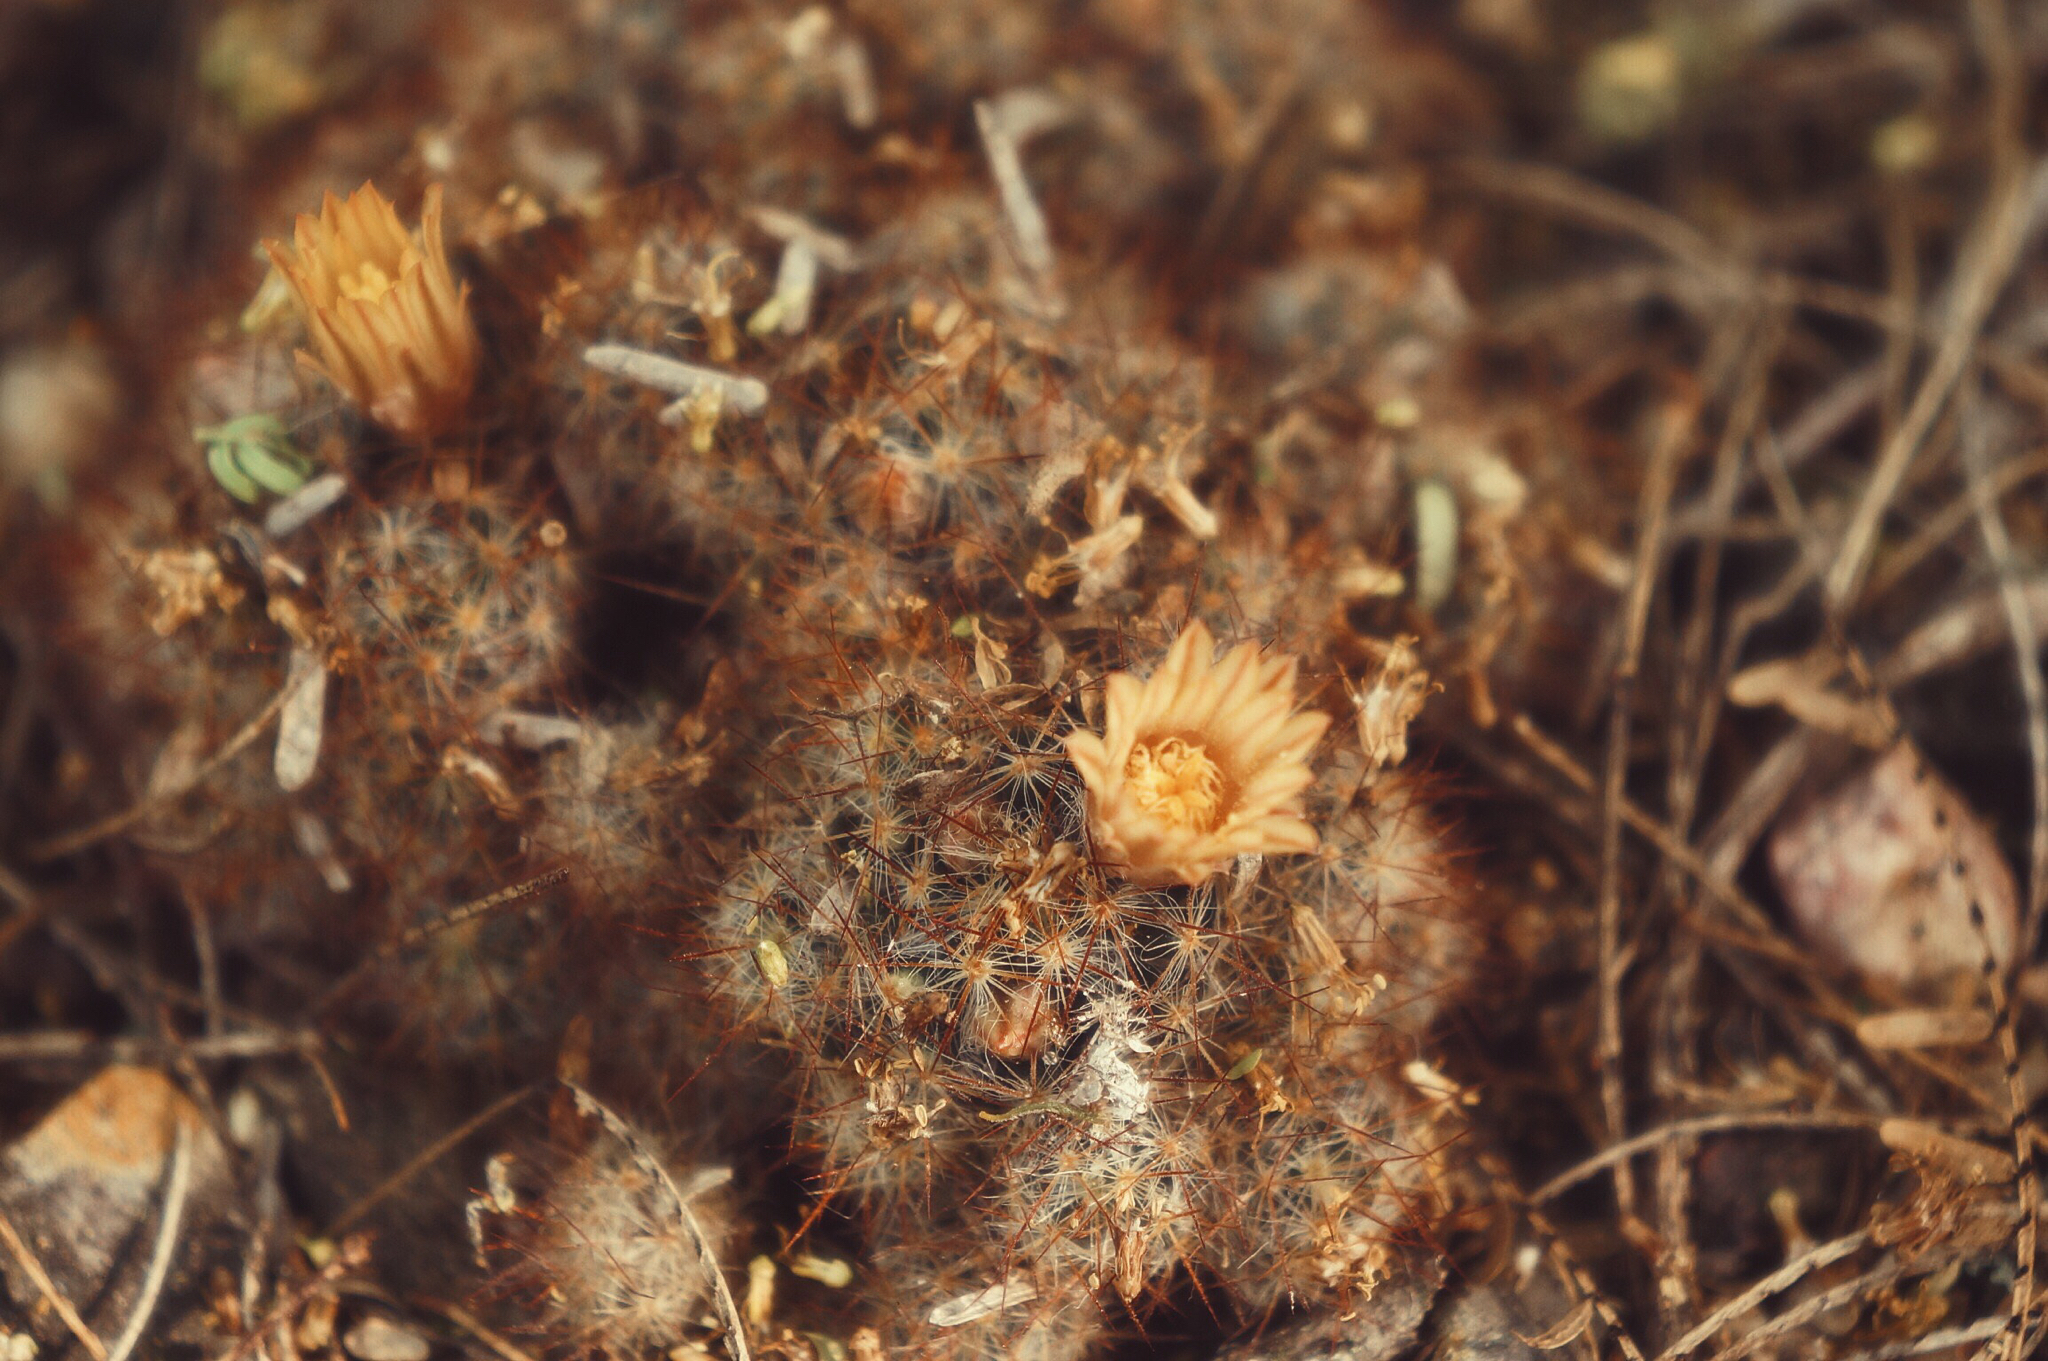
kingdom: Plantae
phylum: Tracheophyta
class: Magnoliopsida
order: Caryophyllales
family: Cactaceae
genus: Mammillaria
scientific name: Mammillaria prolifera
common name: Texas nipple cactus
